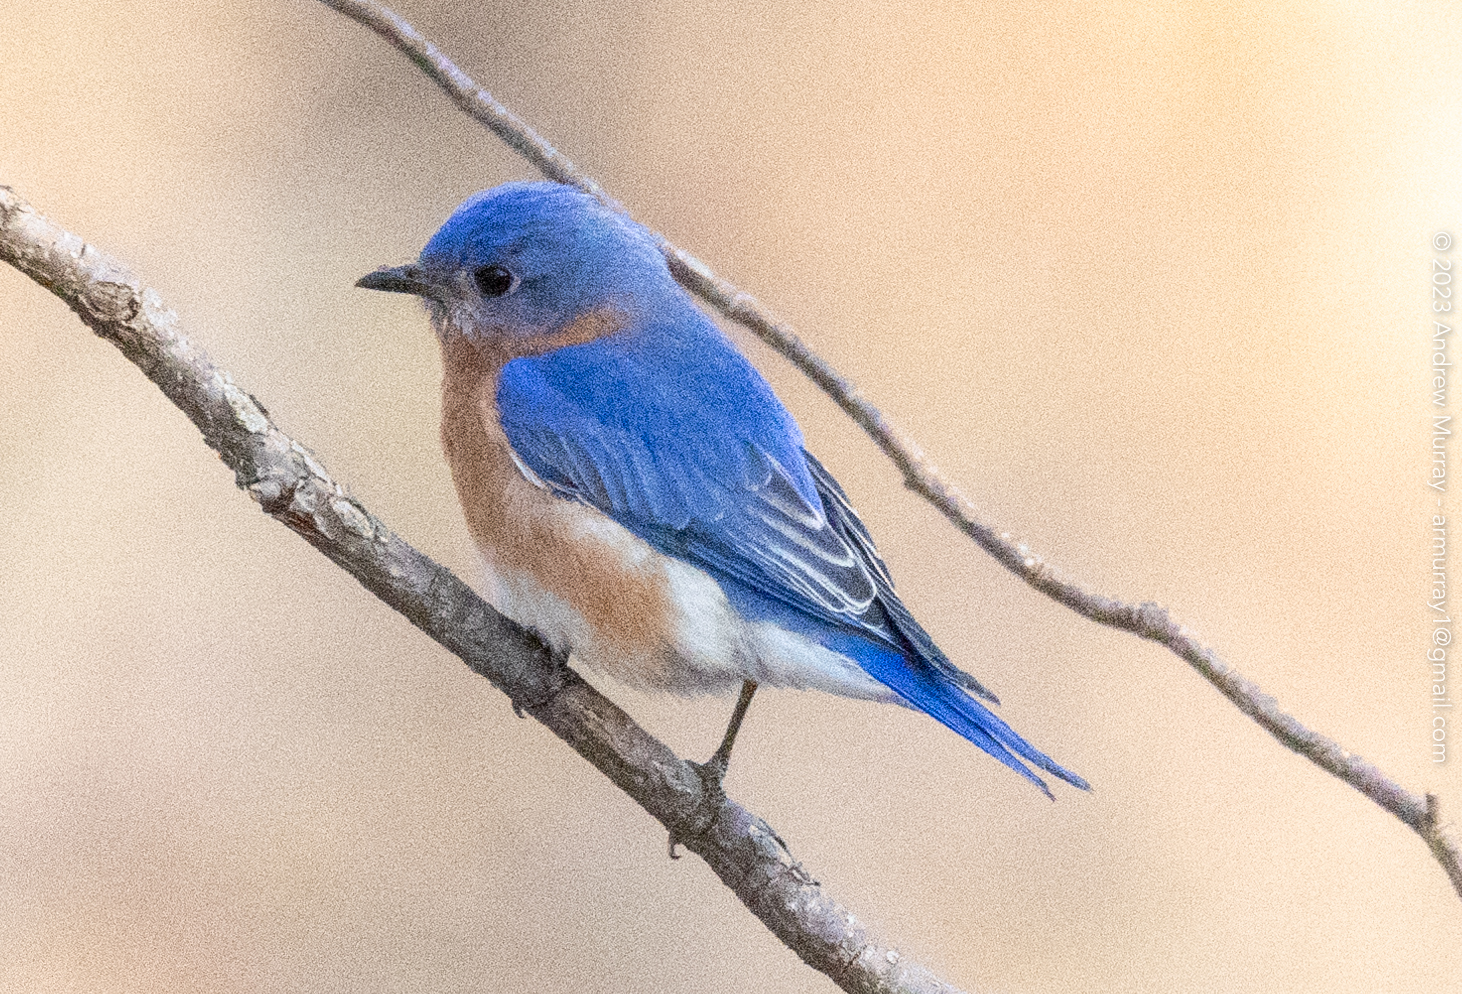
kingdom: Animalia
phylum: Chordata
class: Aves
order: Passeriformes
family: Turdidae
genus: Sialia
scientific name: Sialia sialis
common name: Eastern bluebird
